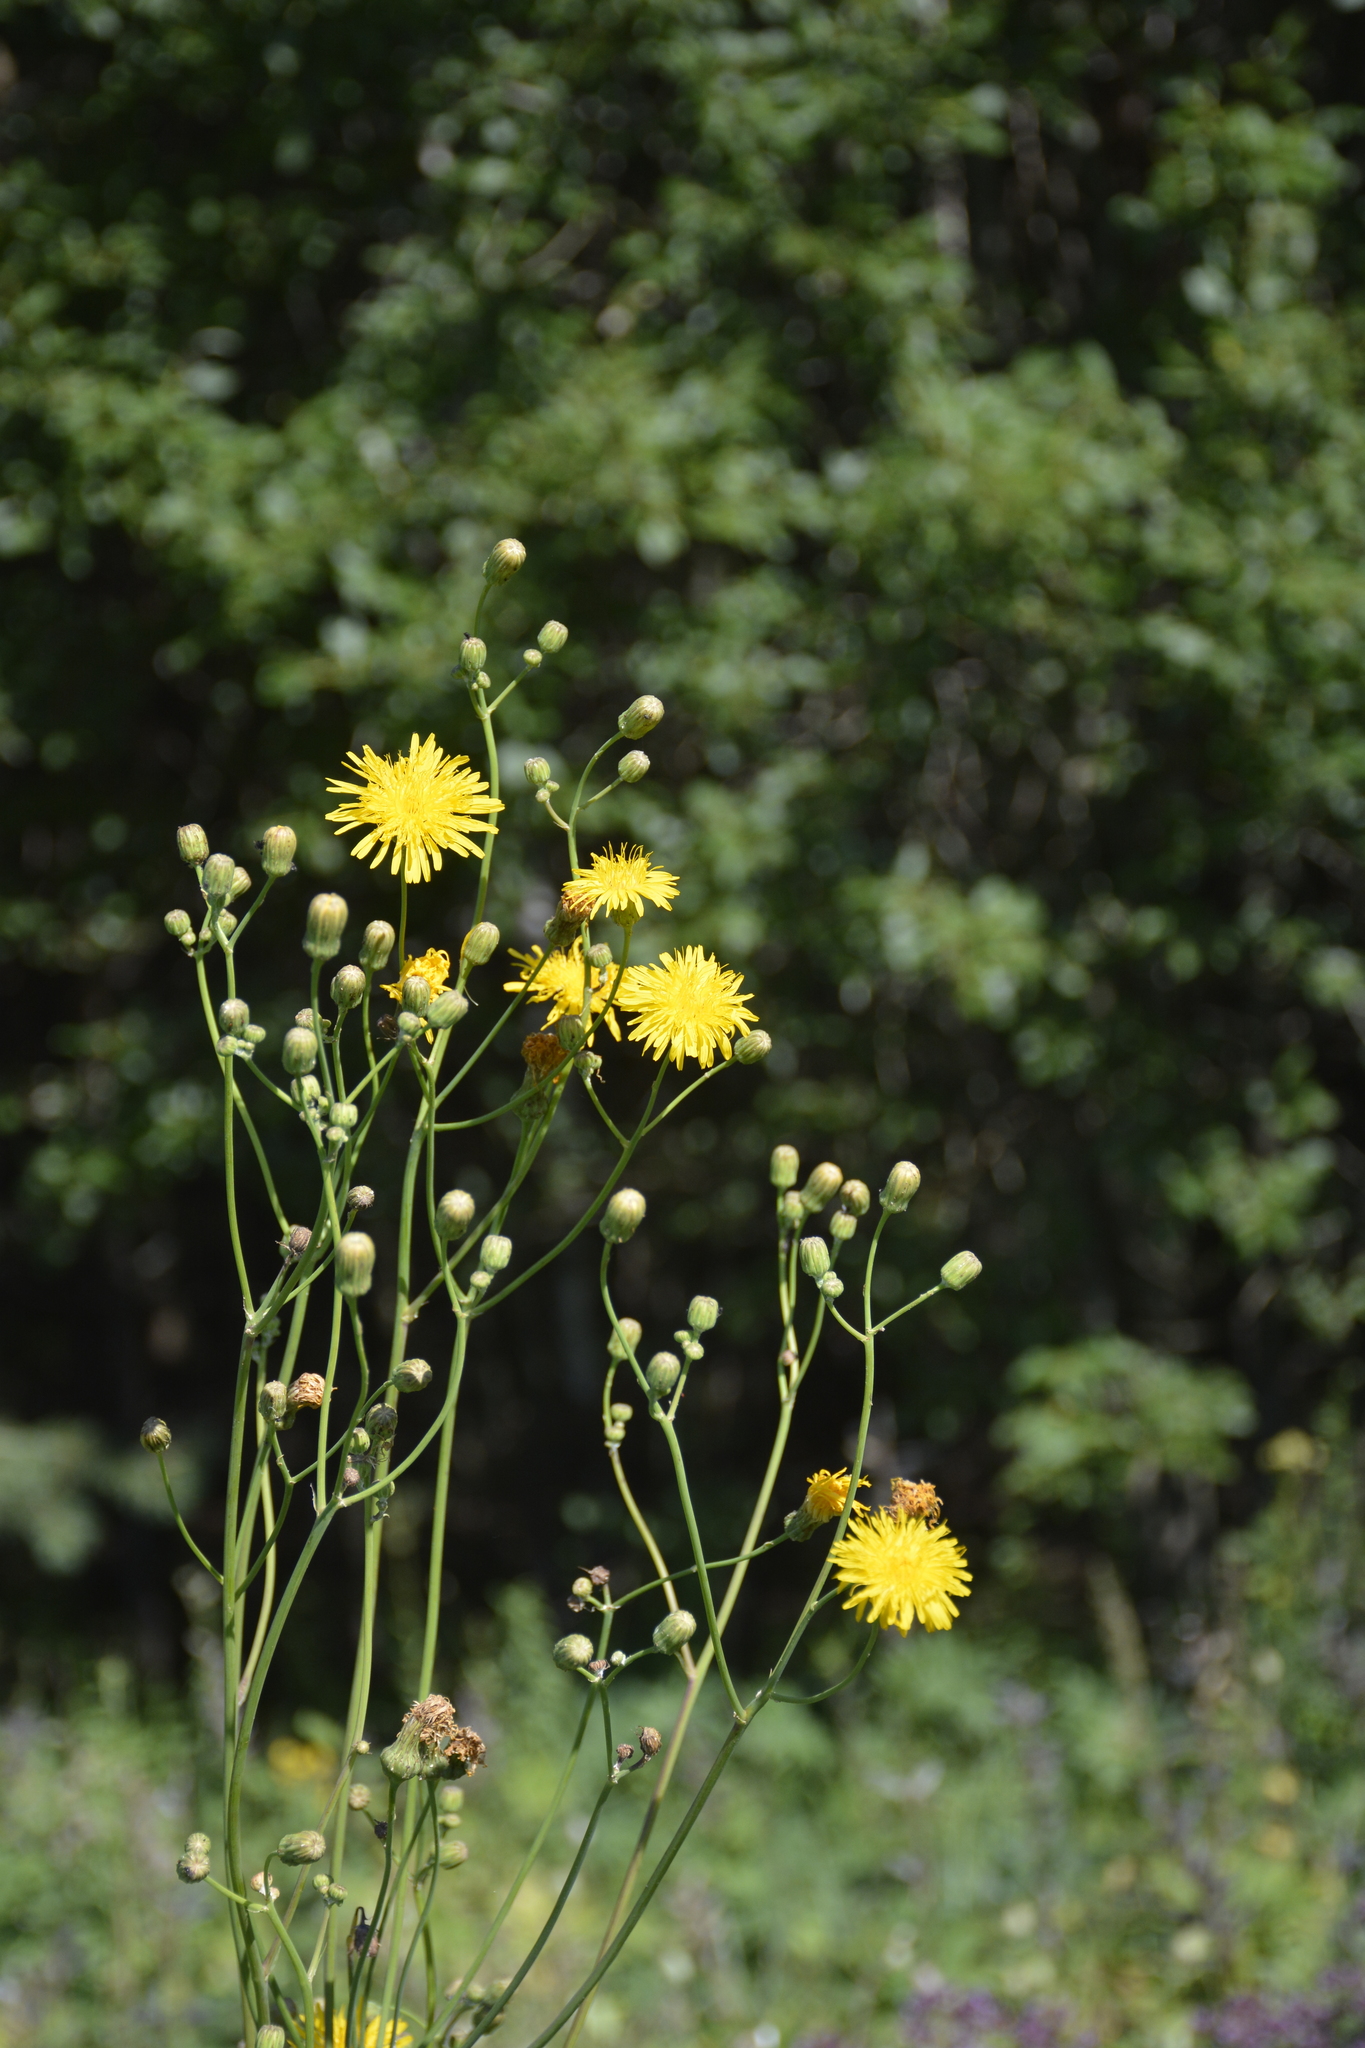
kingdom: Plantae
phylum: Tracheophyta
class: Magnoliopsida
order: Asterales
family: Asteraceae
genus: Sonchus
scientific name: Sonchus arvensis
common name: Perennial sow-thistle
